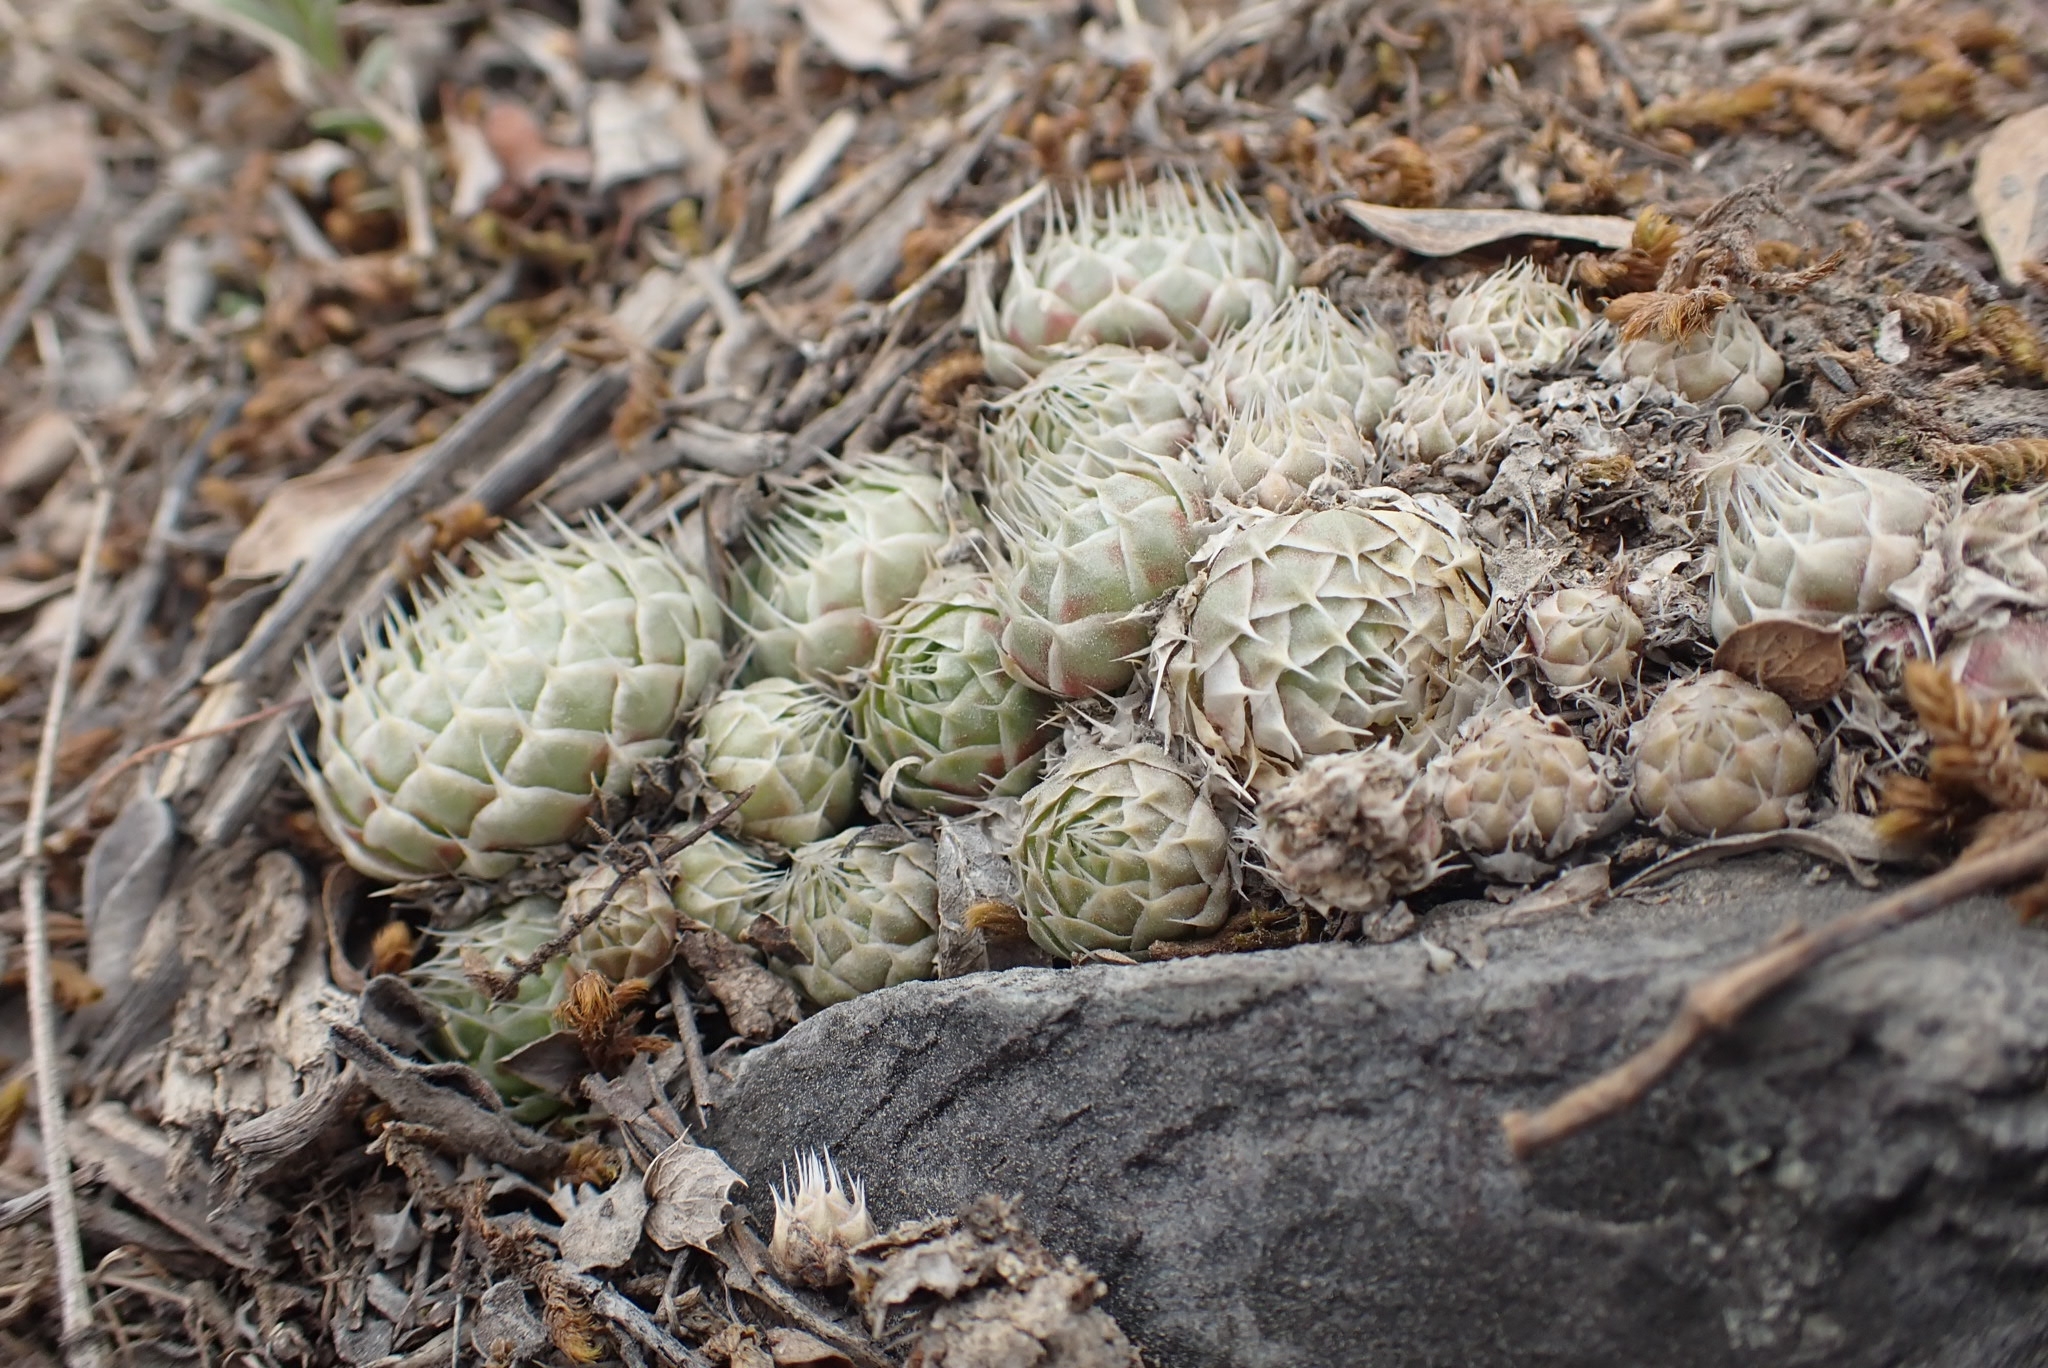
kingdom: Plantae
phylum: Tracheophyta
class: Magnoliopsida
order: Saxifragales
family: Crassulaceae
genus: Orostachys
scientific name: Orostachys spinosa
